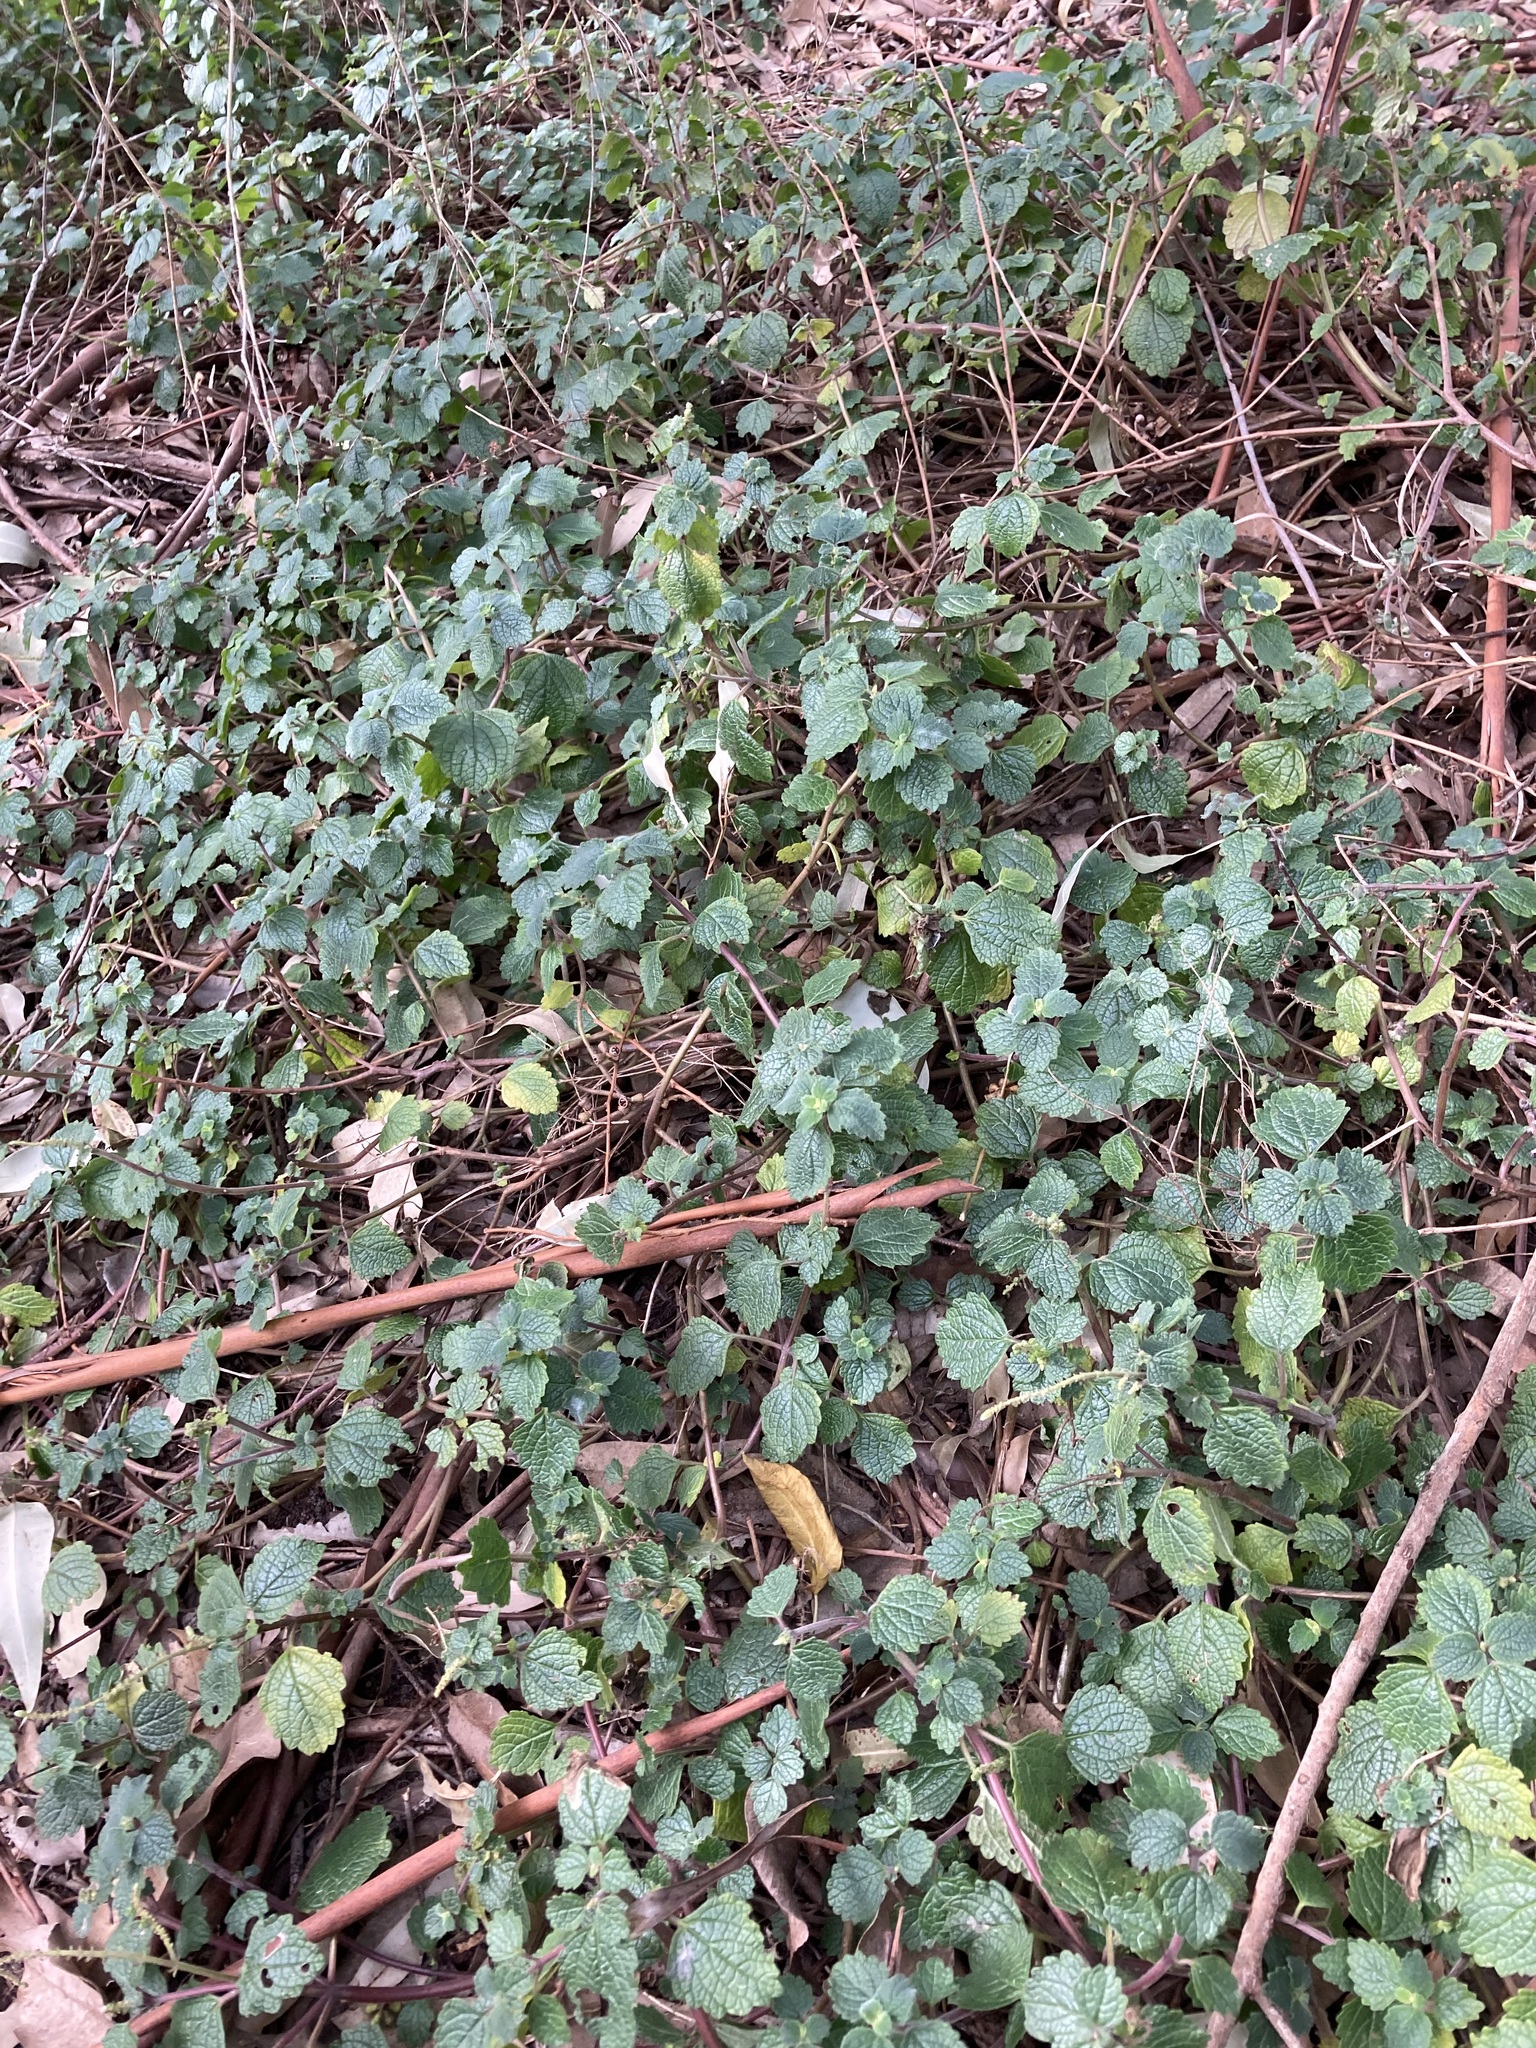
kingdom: Plantae
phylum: Tracheophyta
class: Magnoliopsida
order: Lamiales
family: Lamiaceae
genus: Coleus
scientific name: Coleus australis
